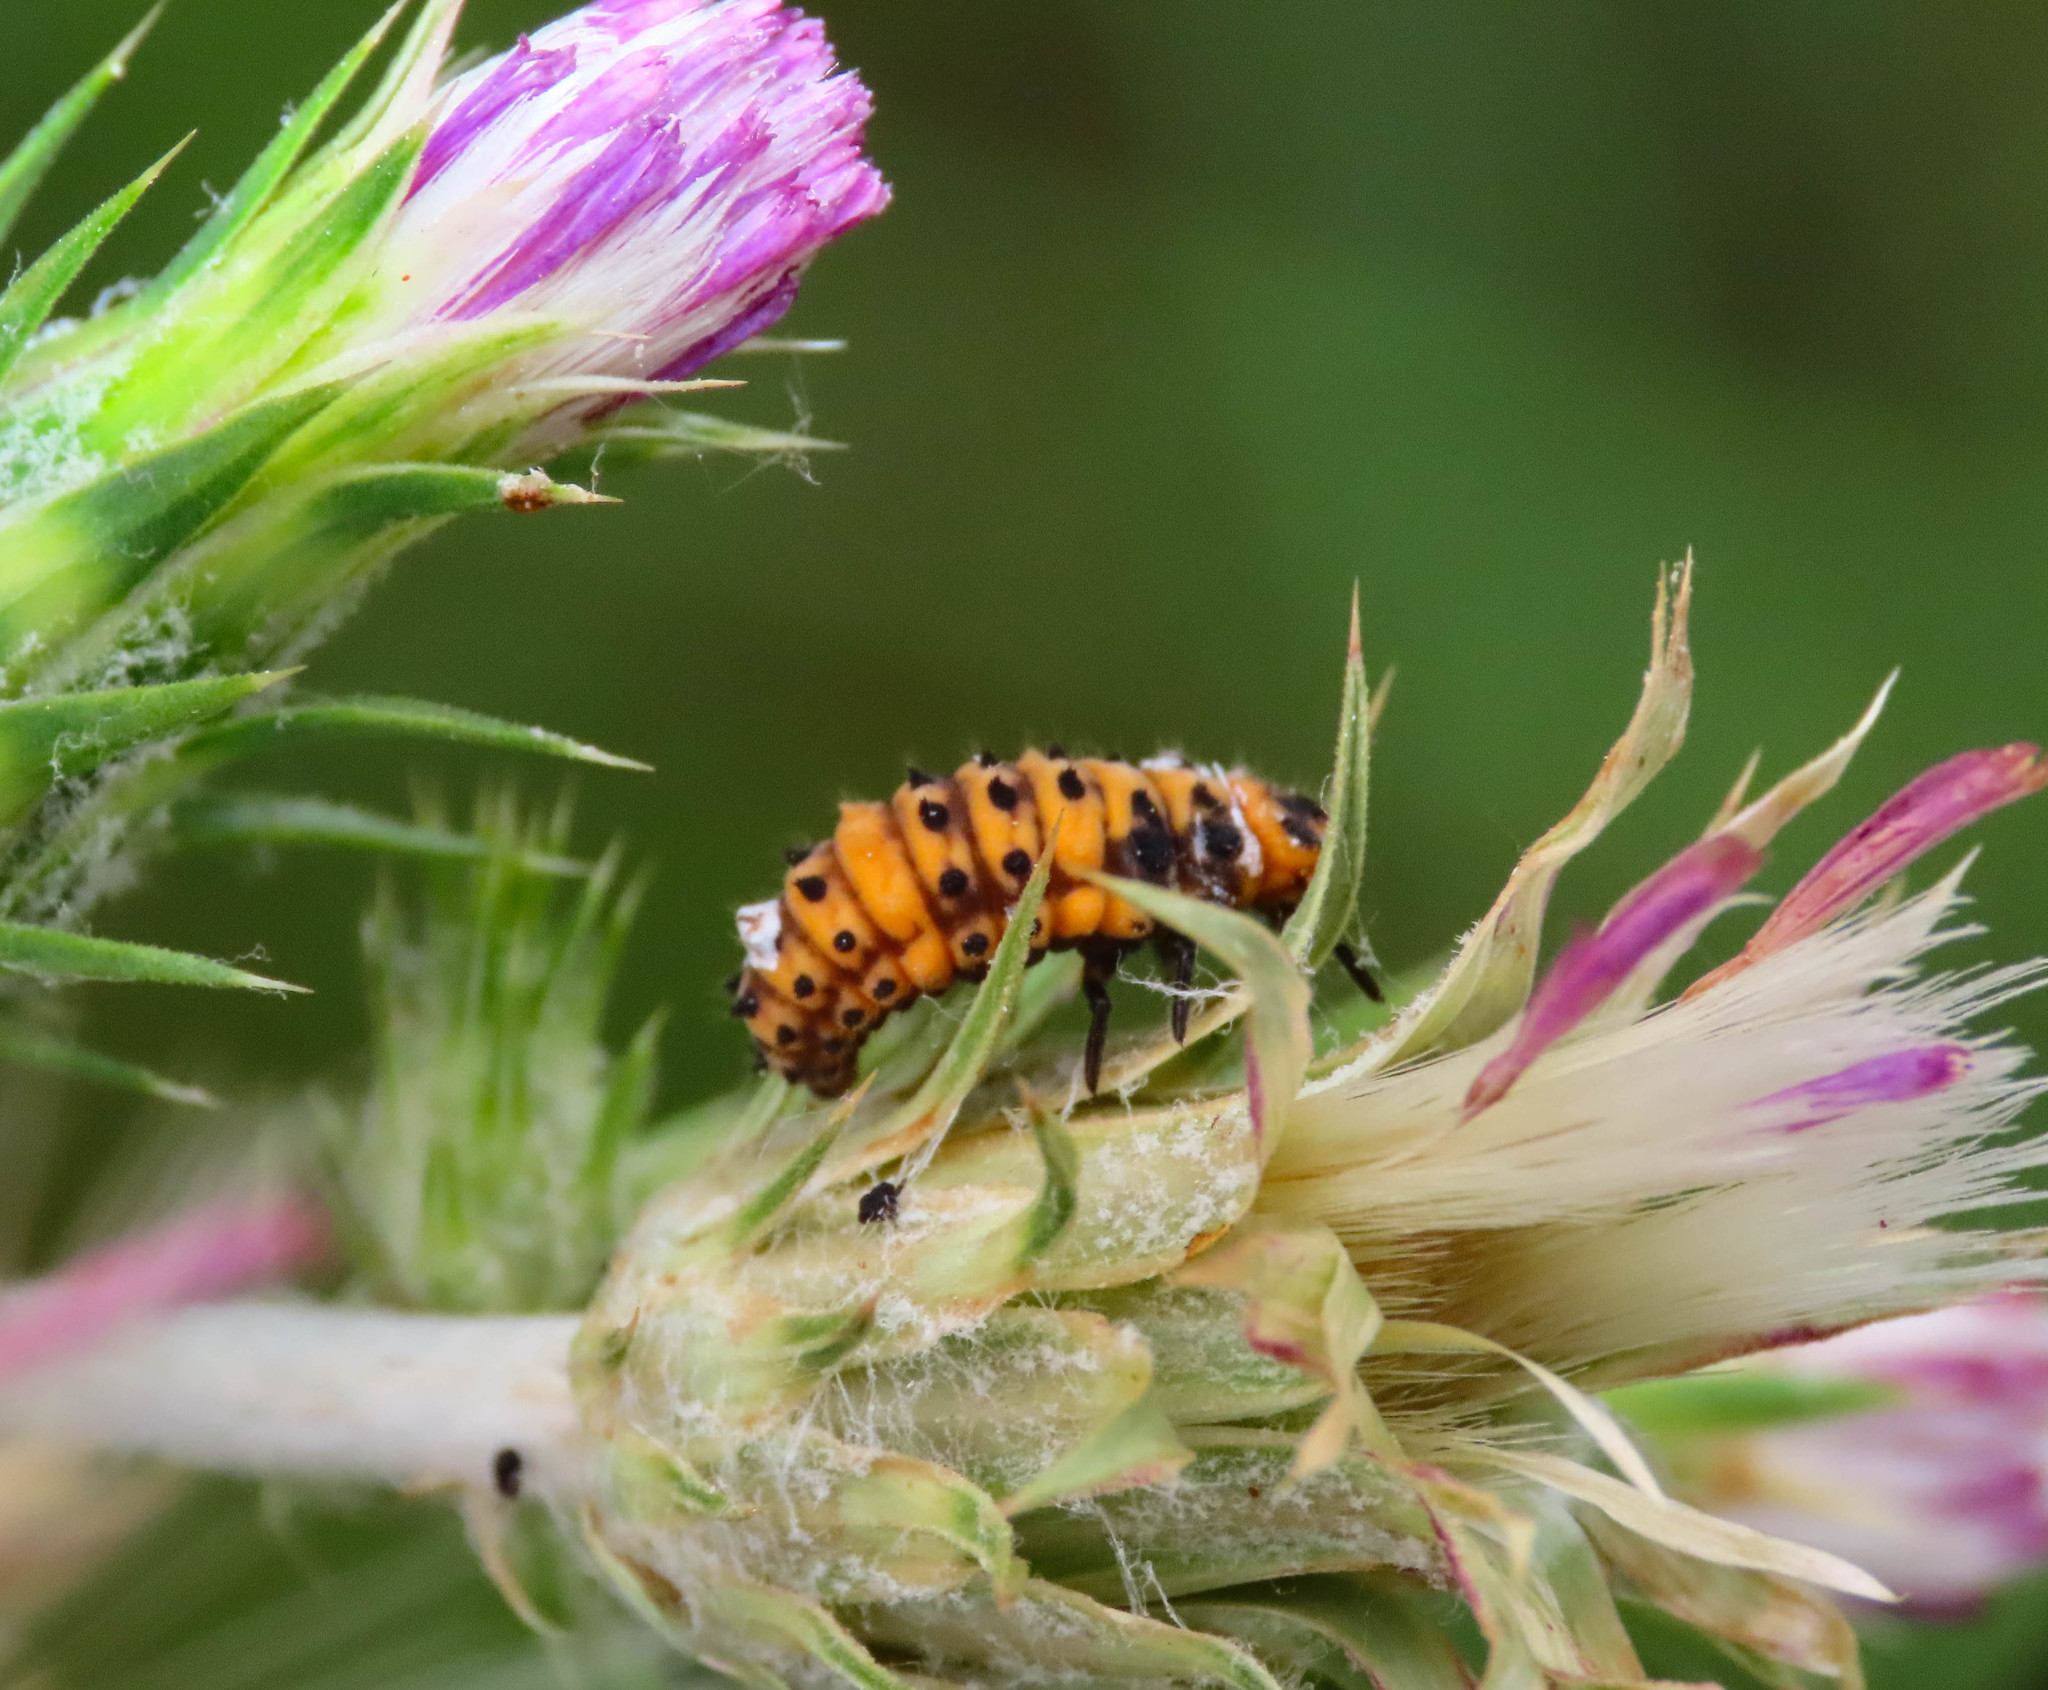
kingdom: Animalia
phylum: Arthropoda
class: Insecta
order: Coleoptera
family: Coccinellidae
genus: Ceratomegilla
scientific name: Ceratomegilla undecimnotata
